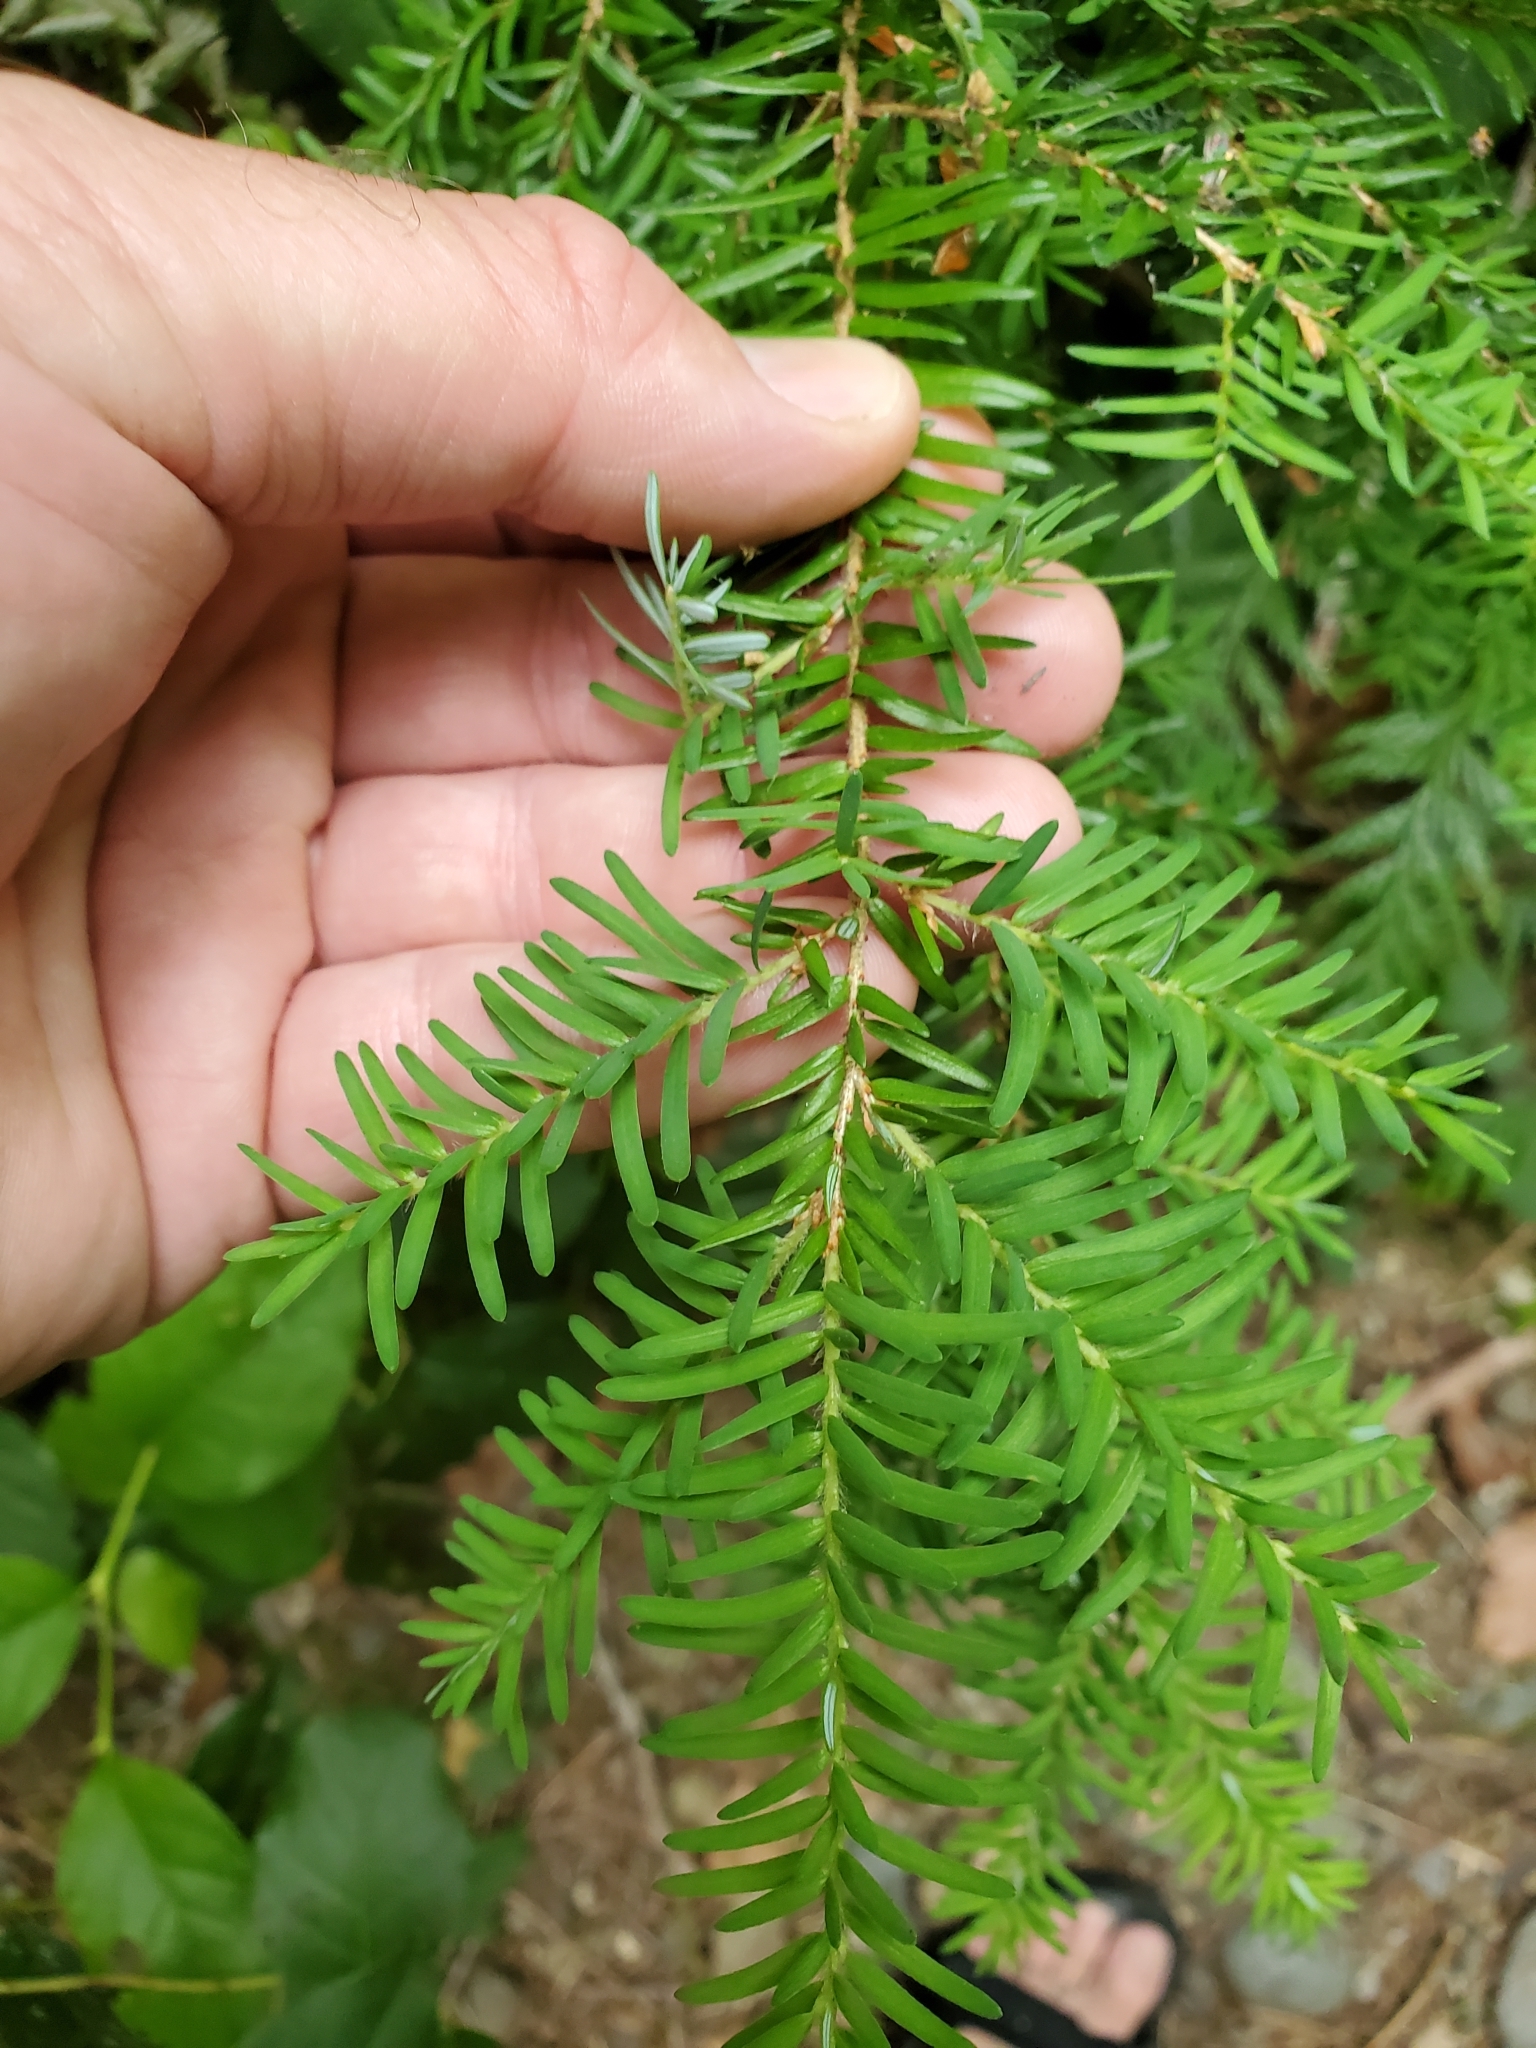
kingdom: Plantae
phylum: Tracheophyta
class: Pinopsida
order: Pinales
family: Pinaceae
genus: Tsuga
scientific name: Tsuga heterophylla
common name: Western hemlock
